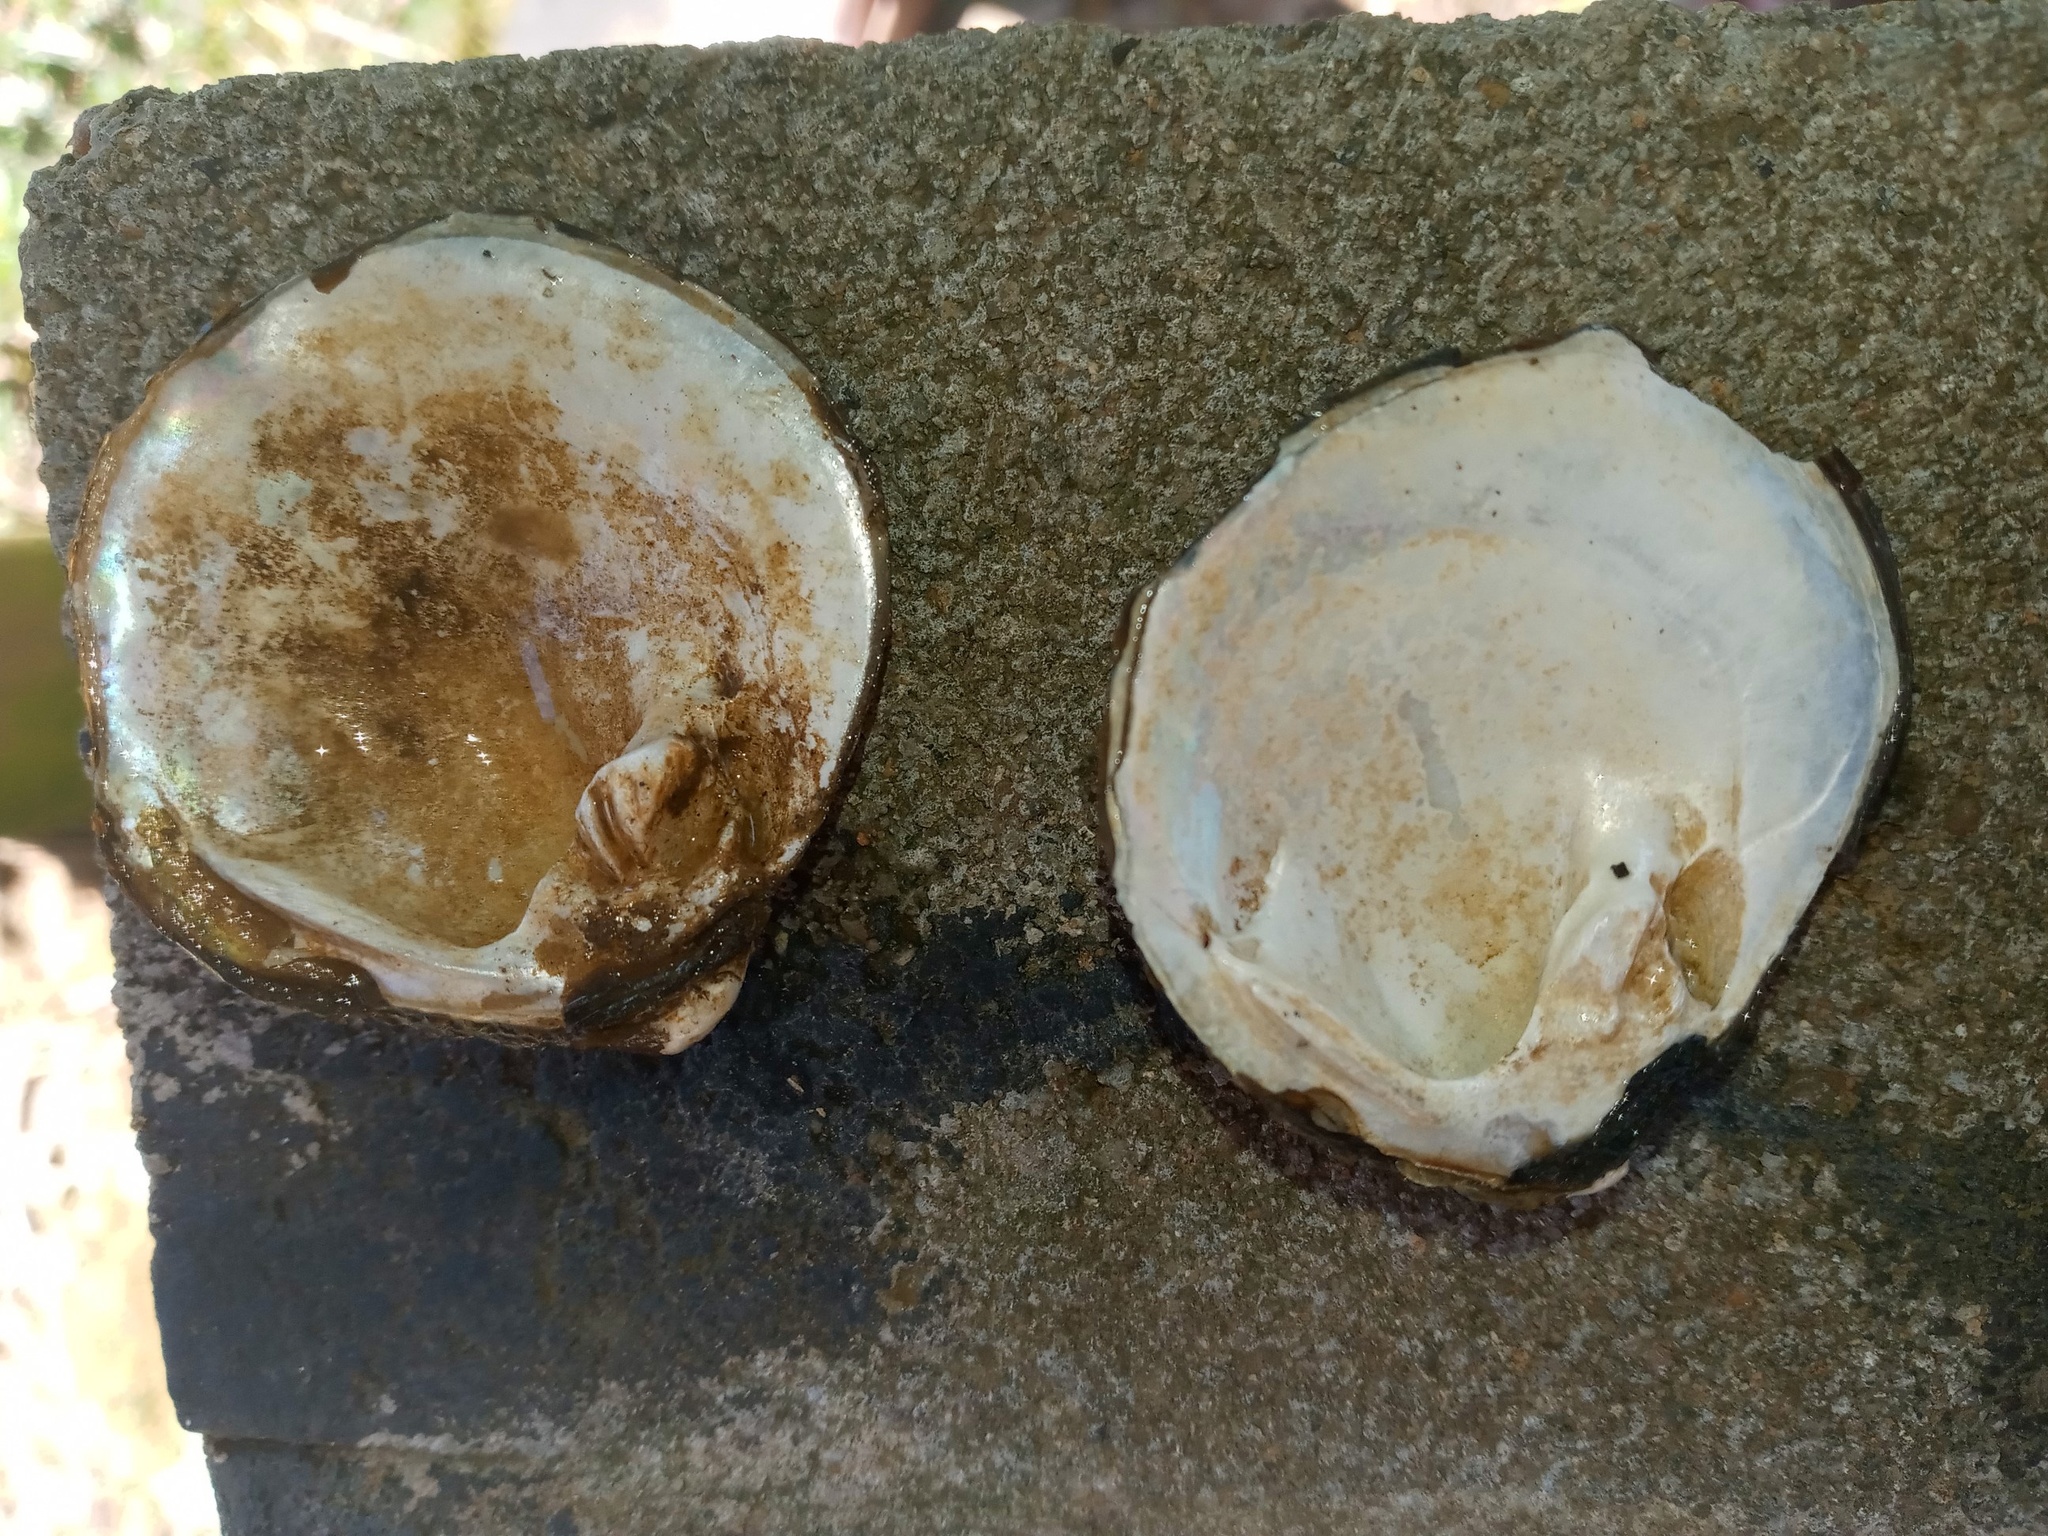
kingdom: Animalia
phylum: Mollusca
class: Bivalvia
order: Unionida
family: Unionidae
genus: Cyclonaias
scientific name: Cyclonaias pustulosa
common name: Pimpleback
